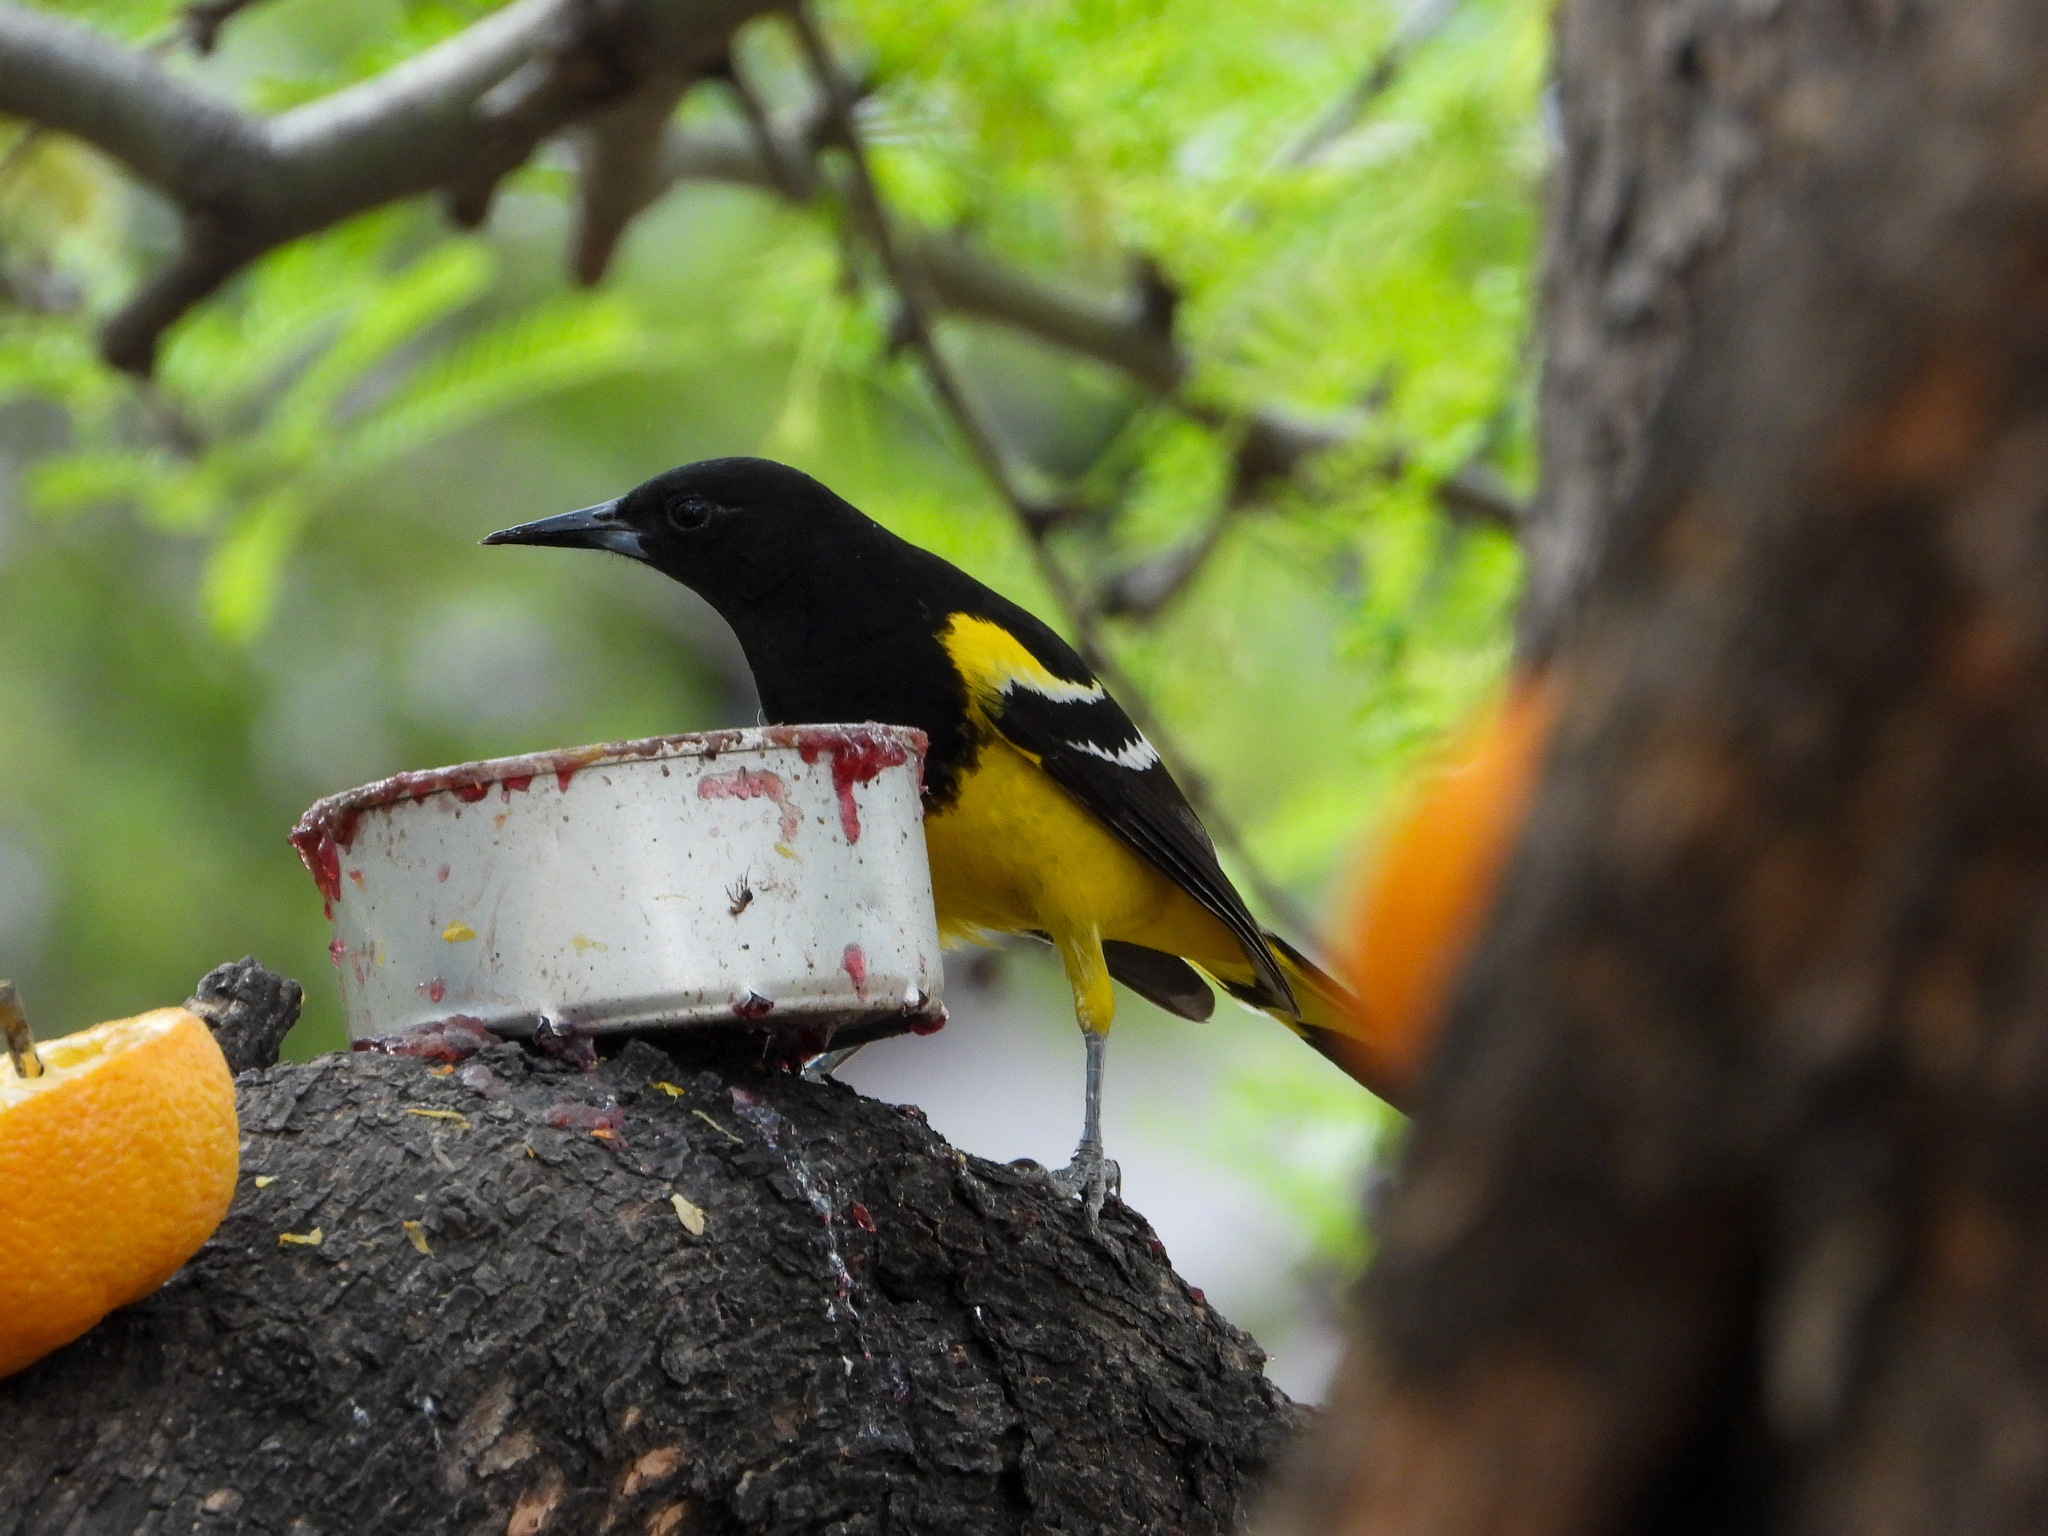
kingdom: Animalia
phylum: Chordata
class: Aves
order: Passeriformes
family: Icteridae
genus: Icterus
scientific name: Icterus parisorum
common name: Scott's oriole
